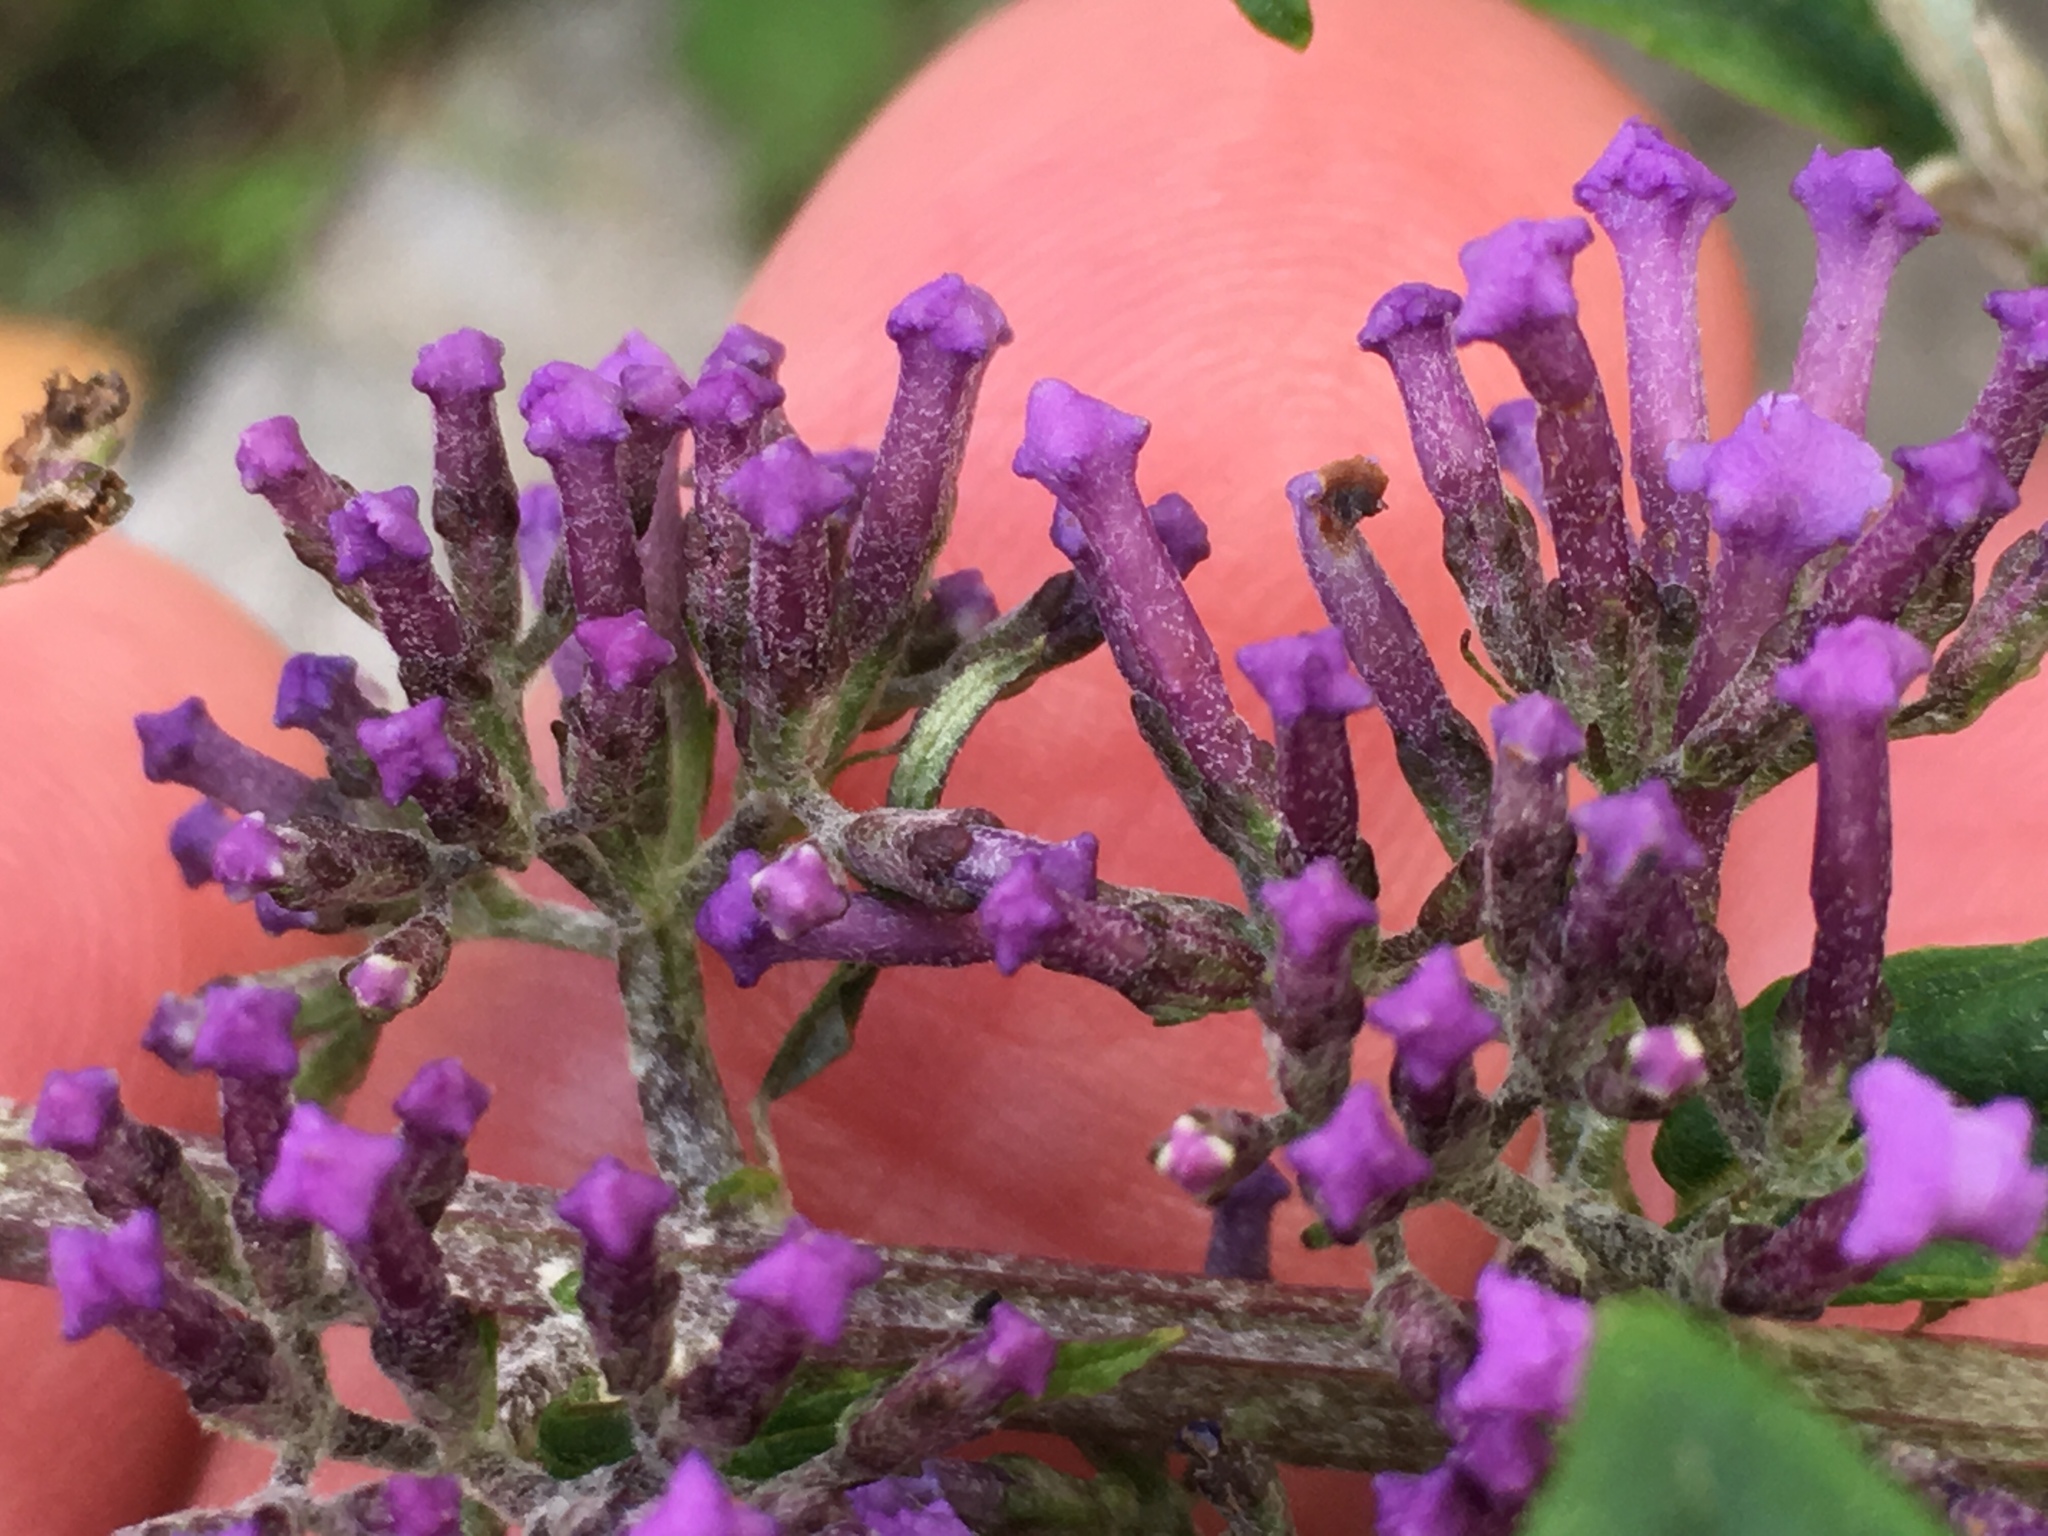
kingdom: Plantae
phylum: Tracheophyta
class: Magnoliopsida
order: Lamiales
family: Scrophulariaceae
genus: Buddleja
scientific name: Buddleja davidii
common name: Butterfly-bush
